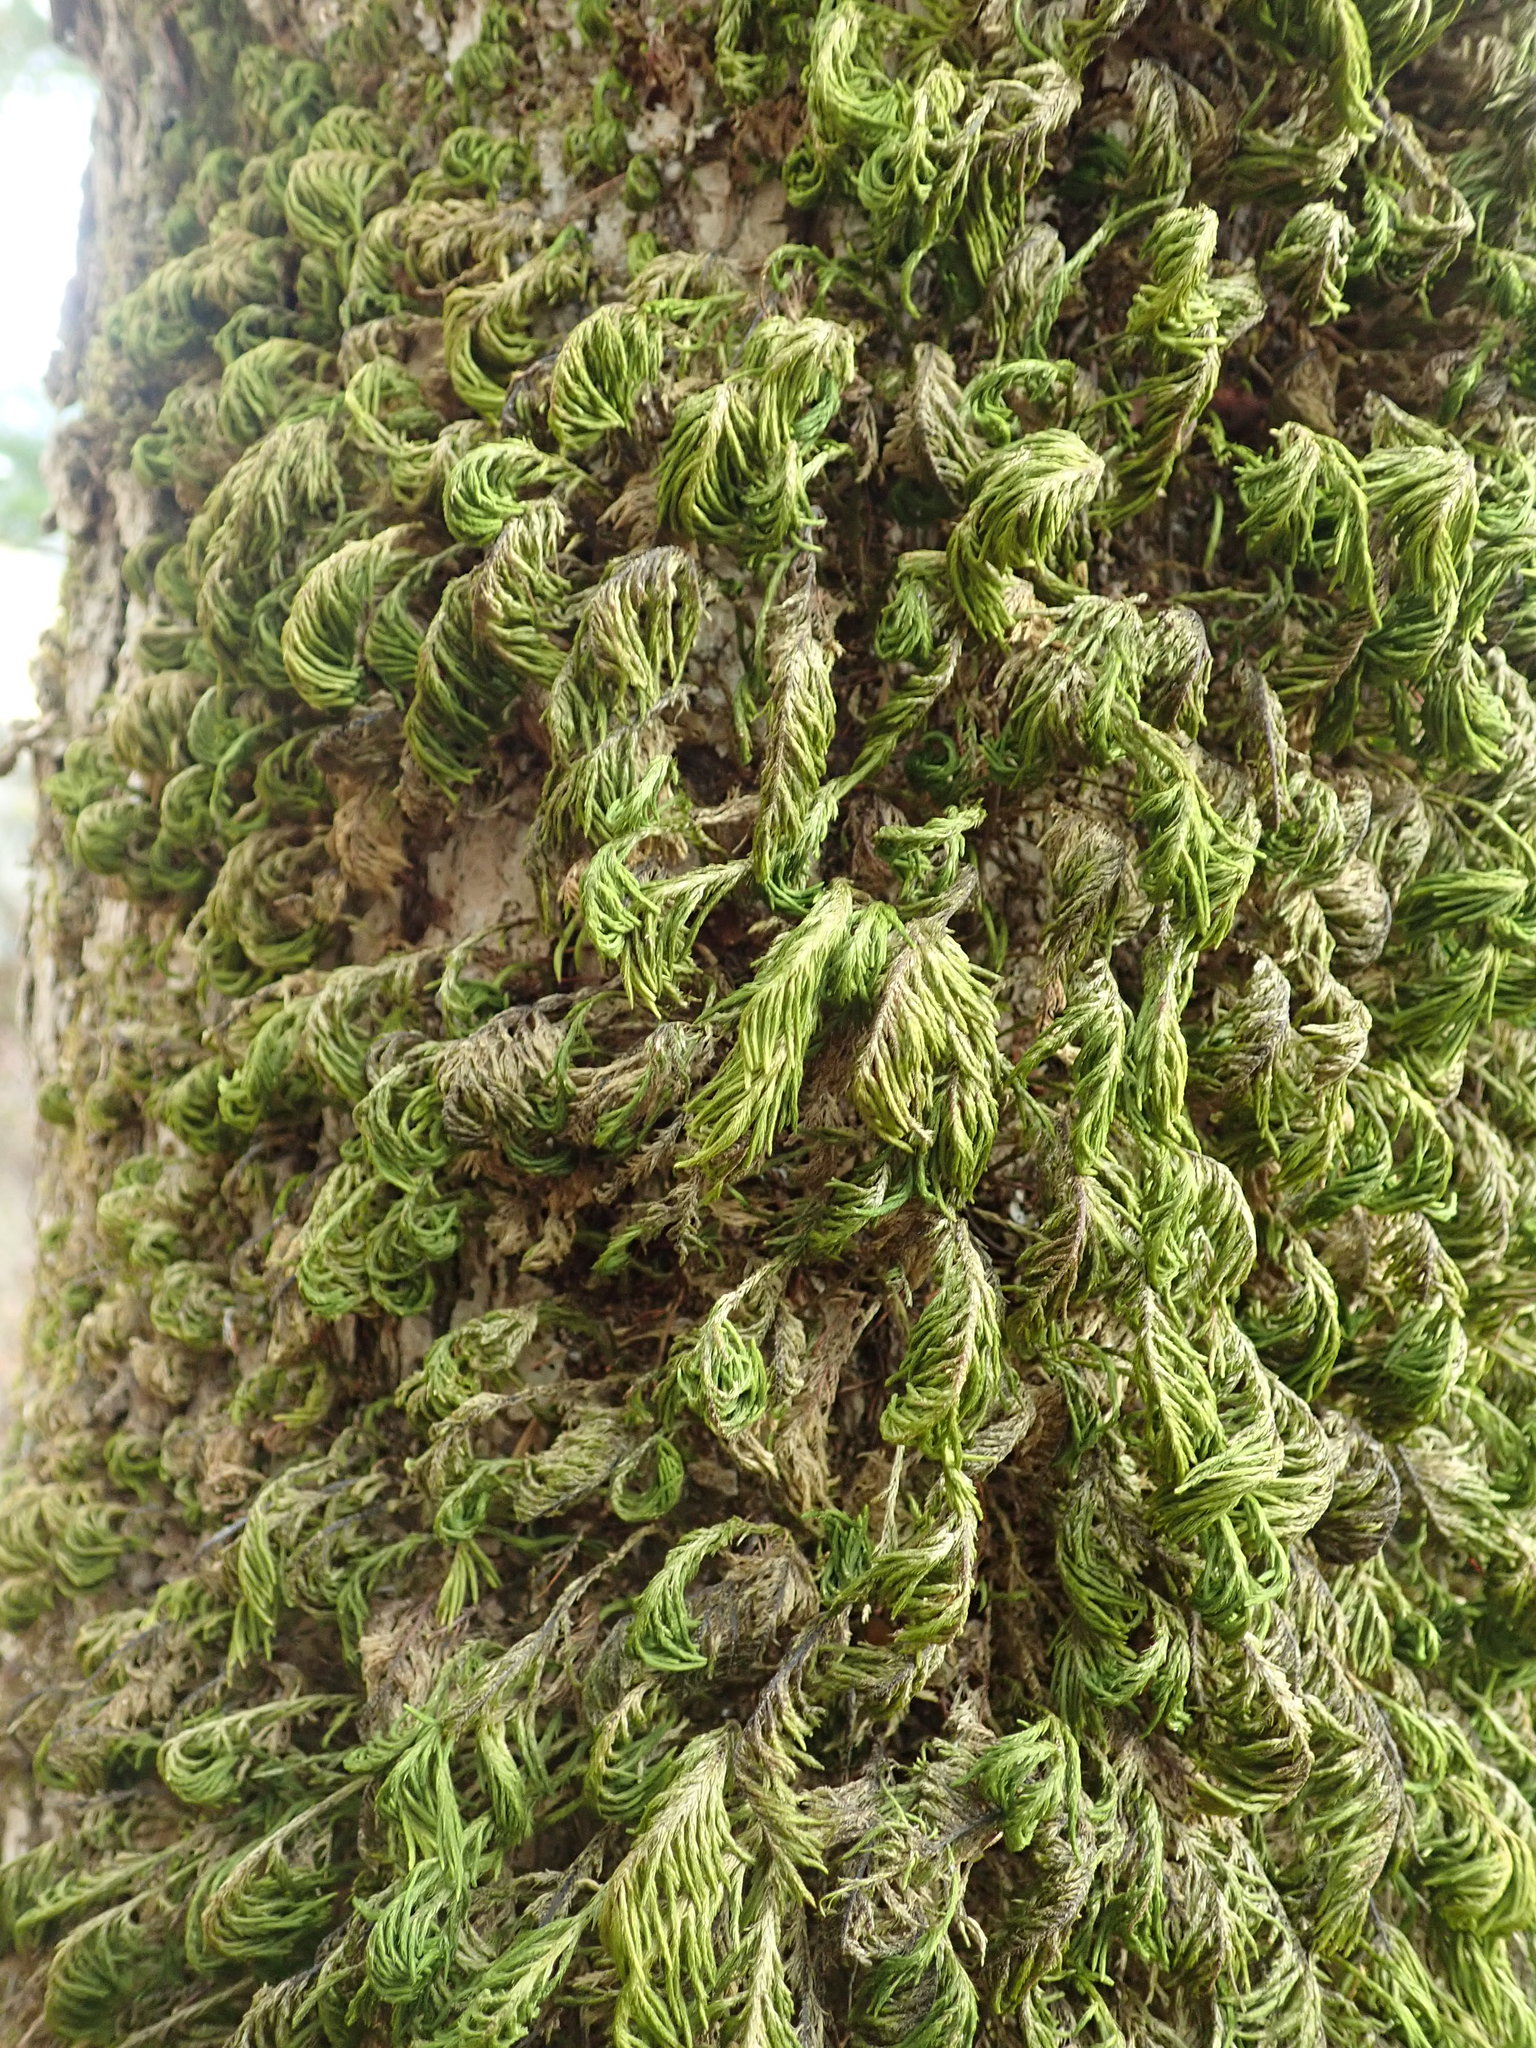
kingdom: Plantae
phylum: Bryophyta
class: Bryopsida
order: Hypnales
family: Cryphaeaceae
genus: Dendroalsia
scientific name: Dendroalsia abietina
